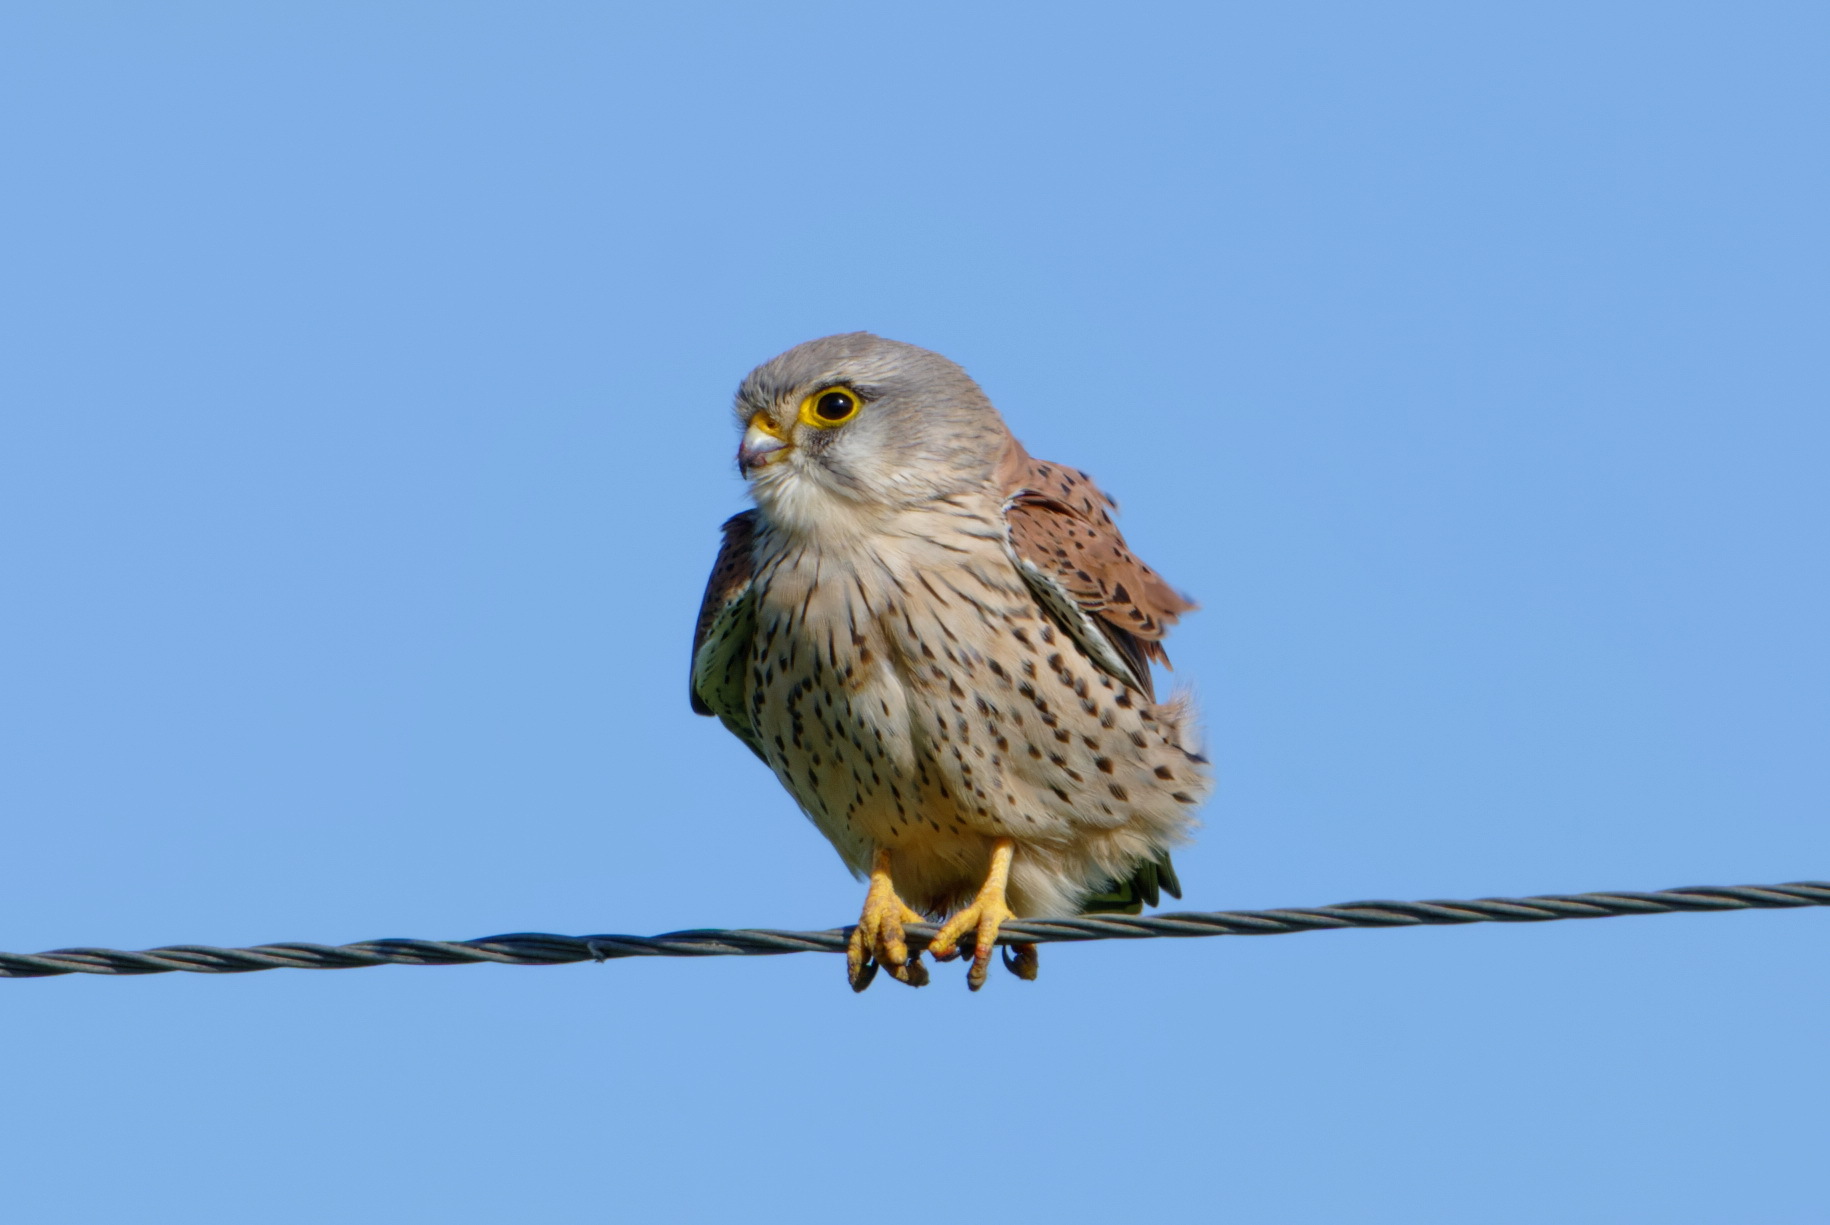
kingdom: Animalia
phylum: Chordata
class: Aves
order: Falconiformes
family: Falconidae
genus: Falco
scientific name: Falco tinnunculus
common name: Common kestrel
